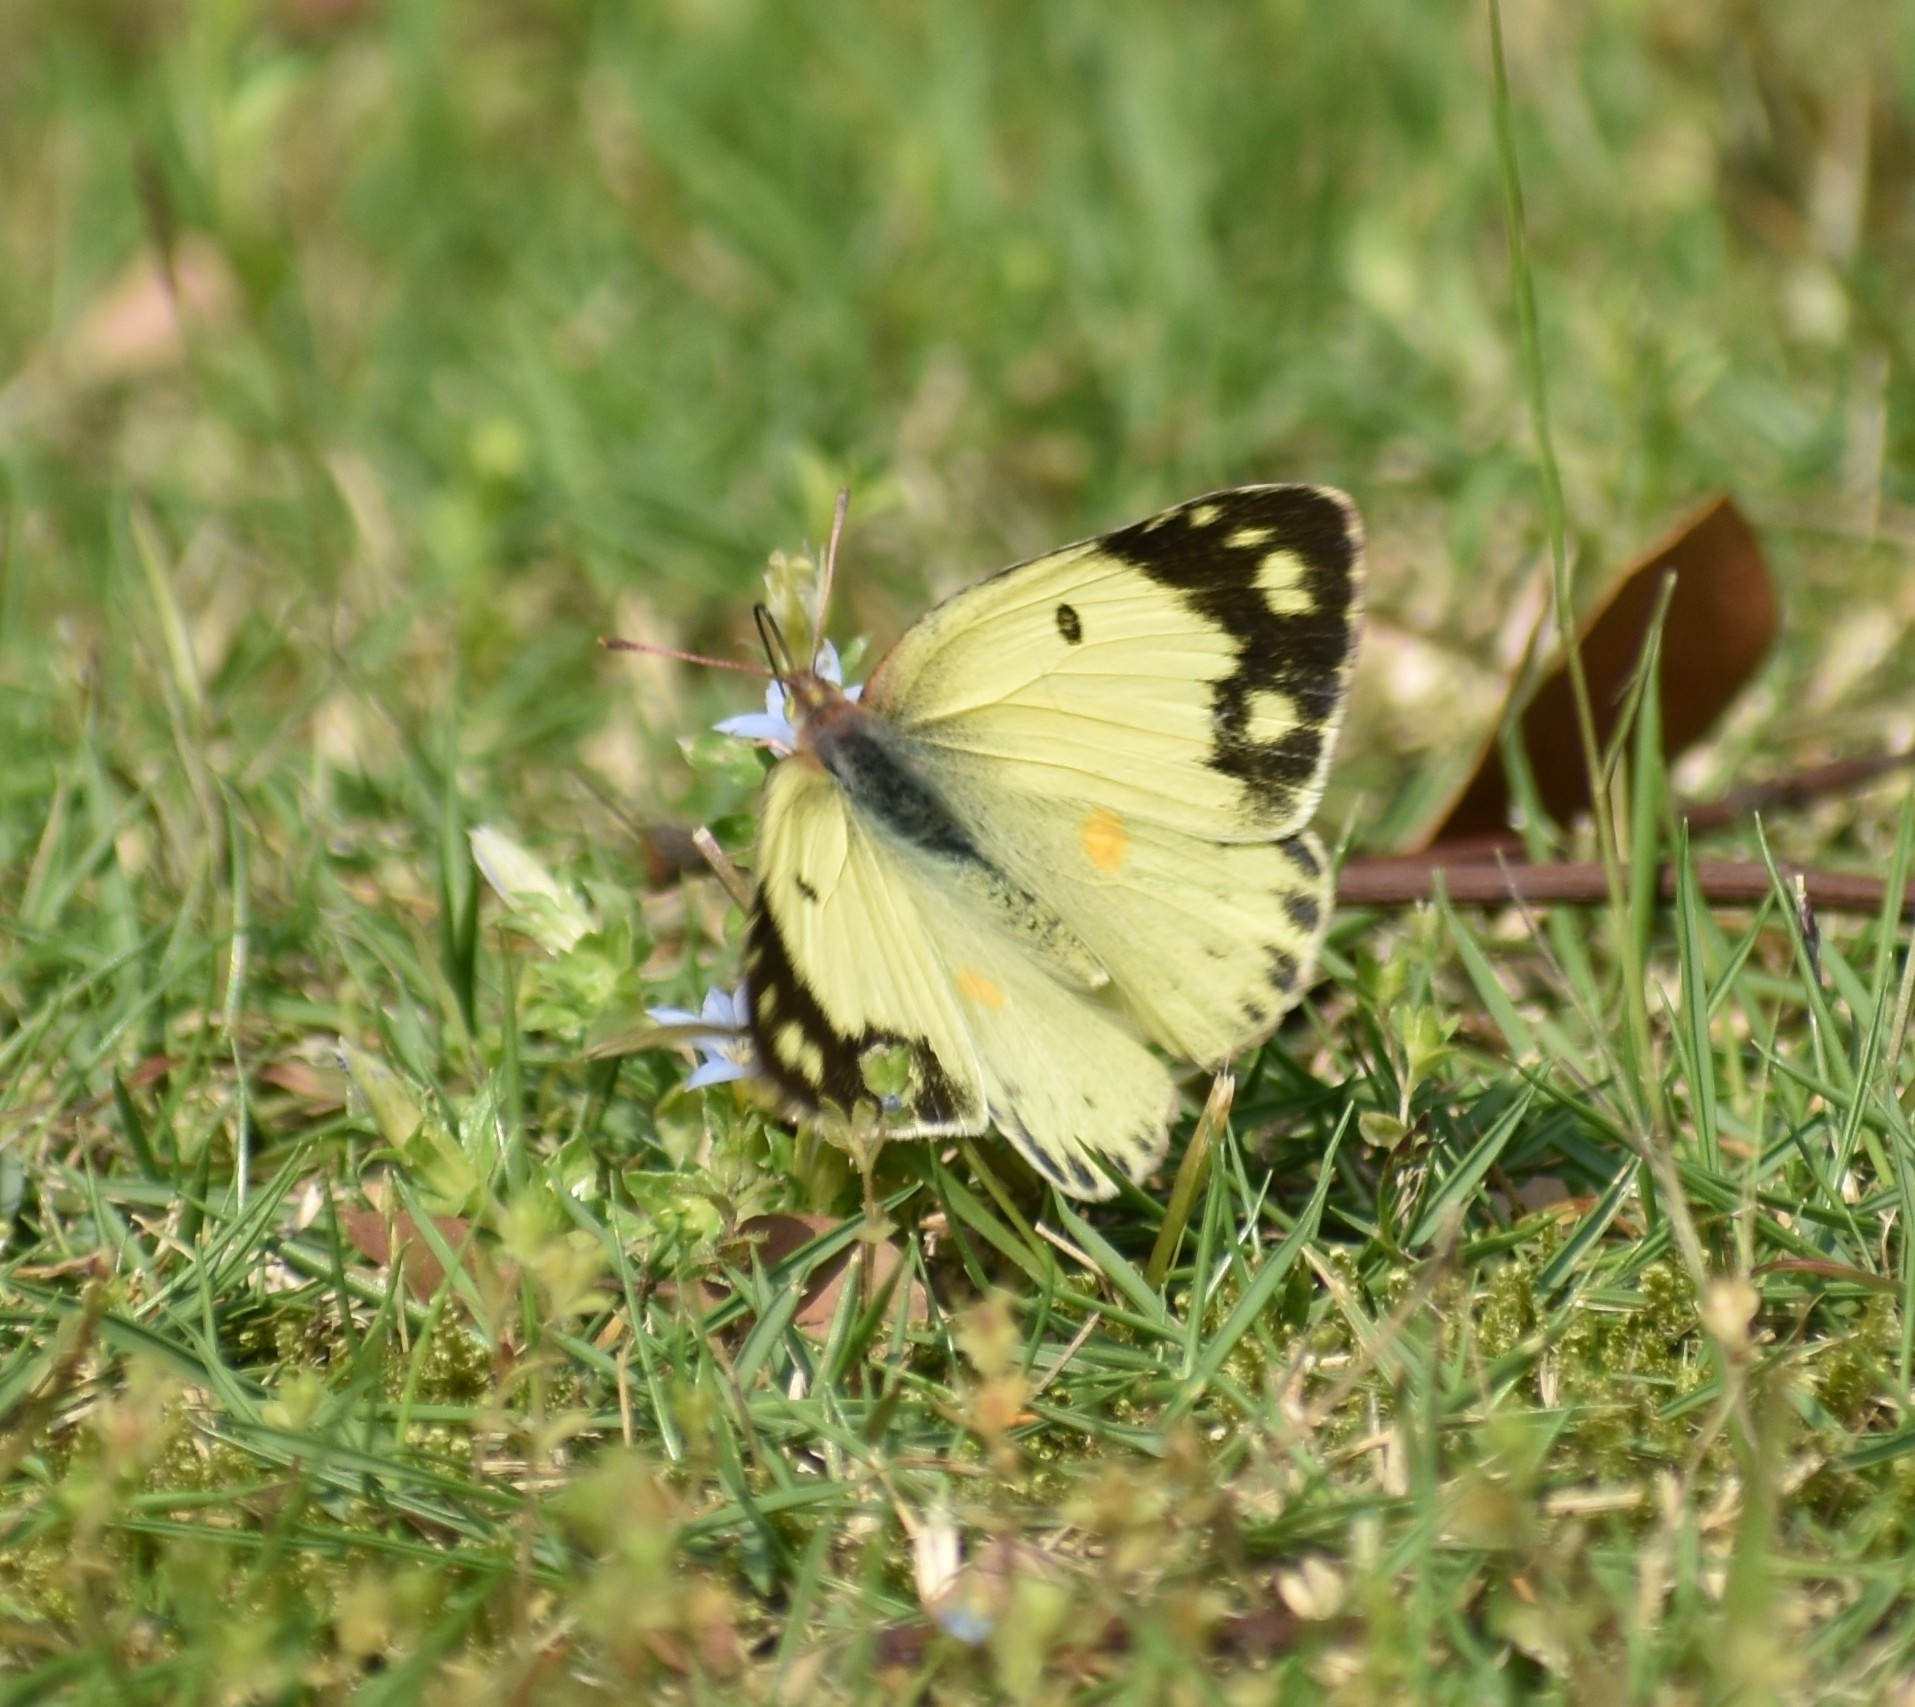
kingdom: Animalia
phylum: Arthropoda
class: Insecta
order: Lepidoptera
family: Pieridae
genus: Colias
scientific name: Colias poliographus
